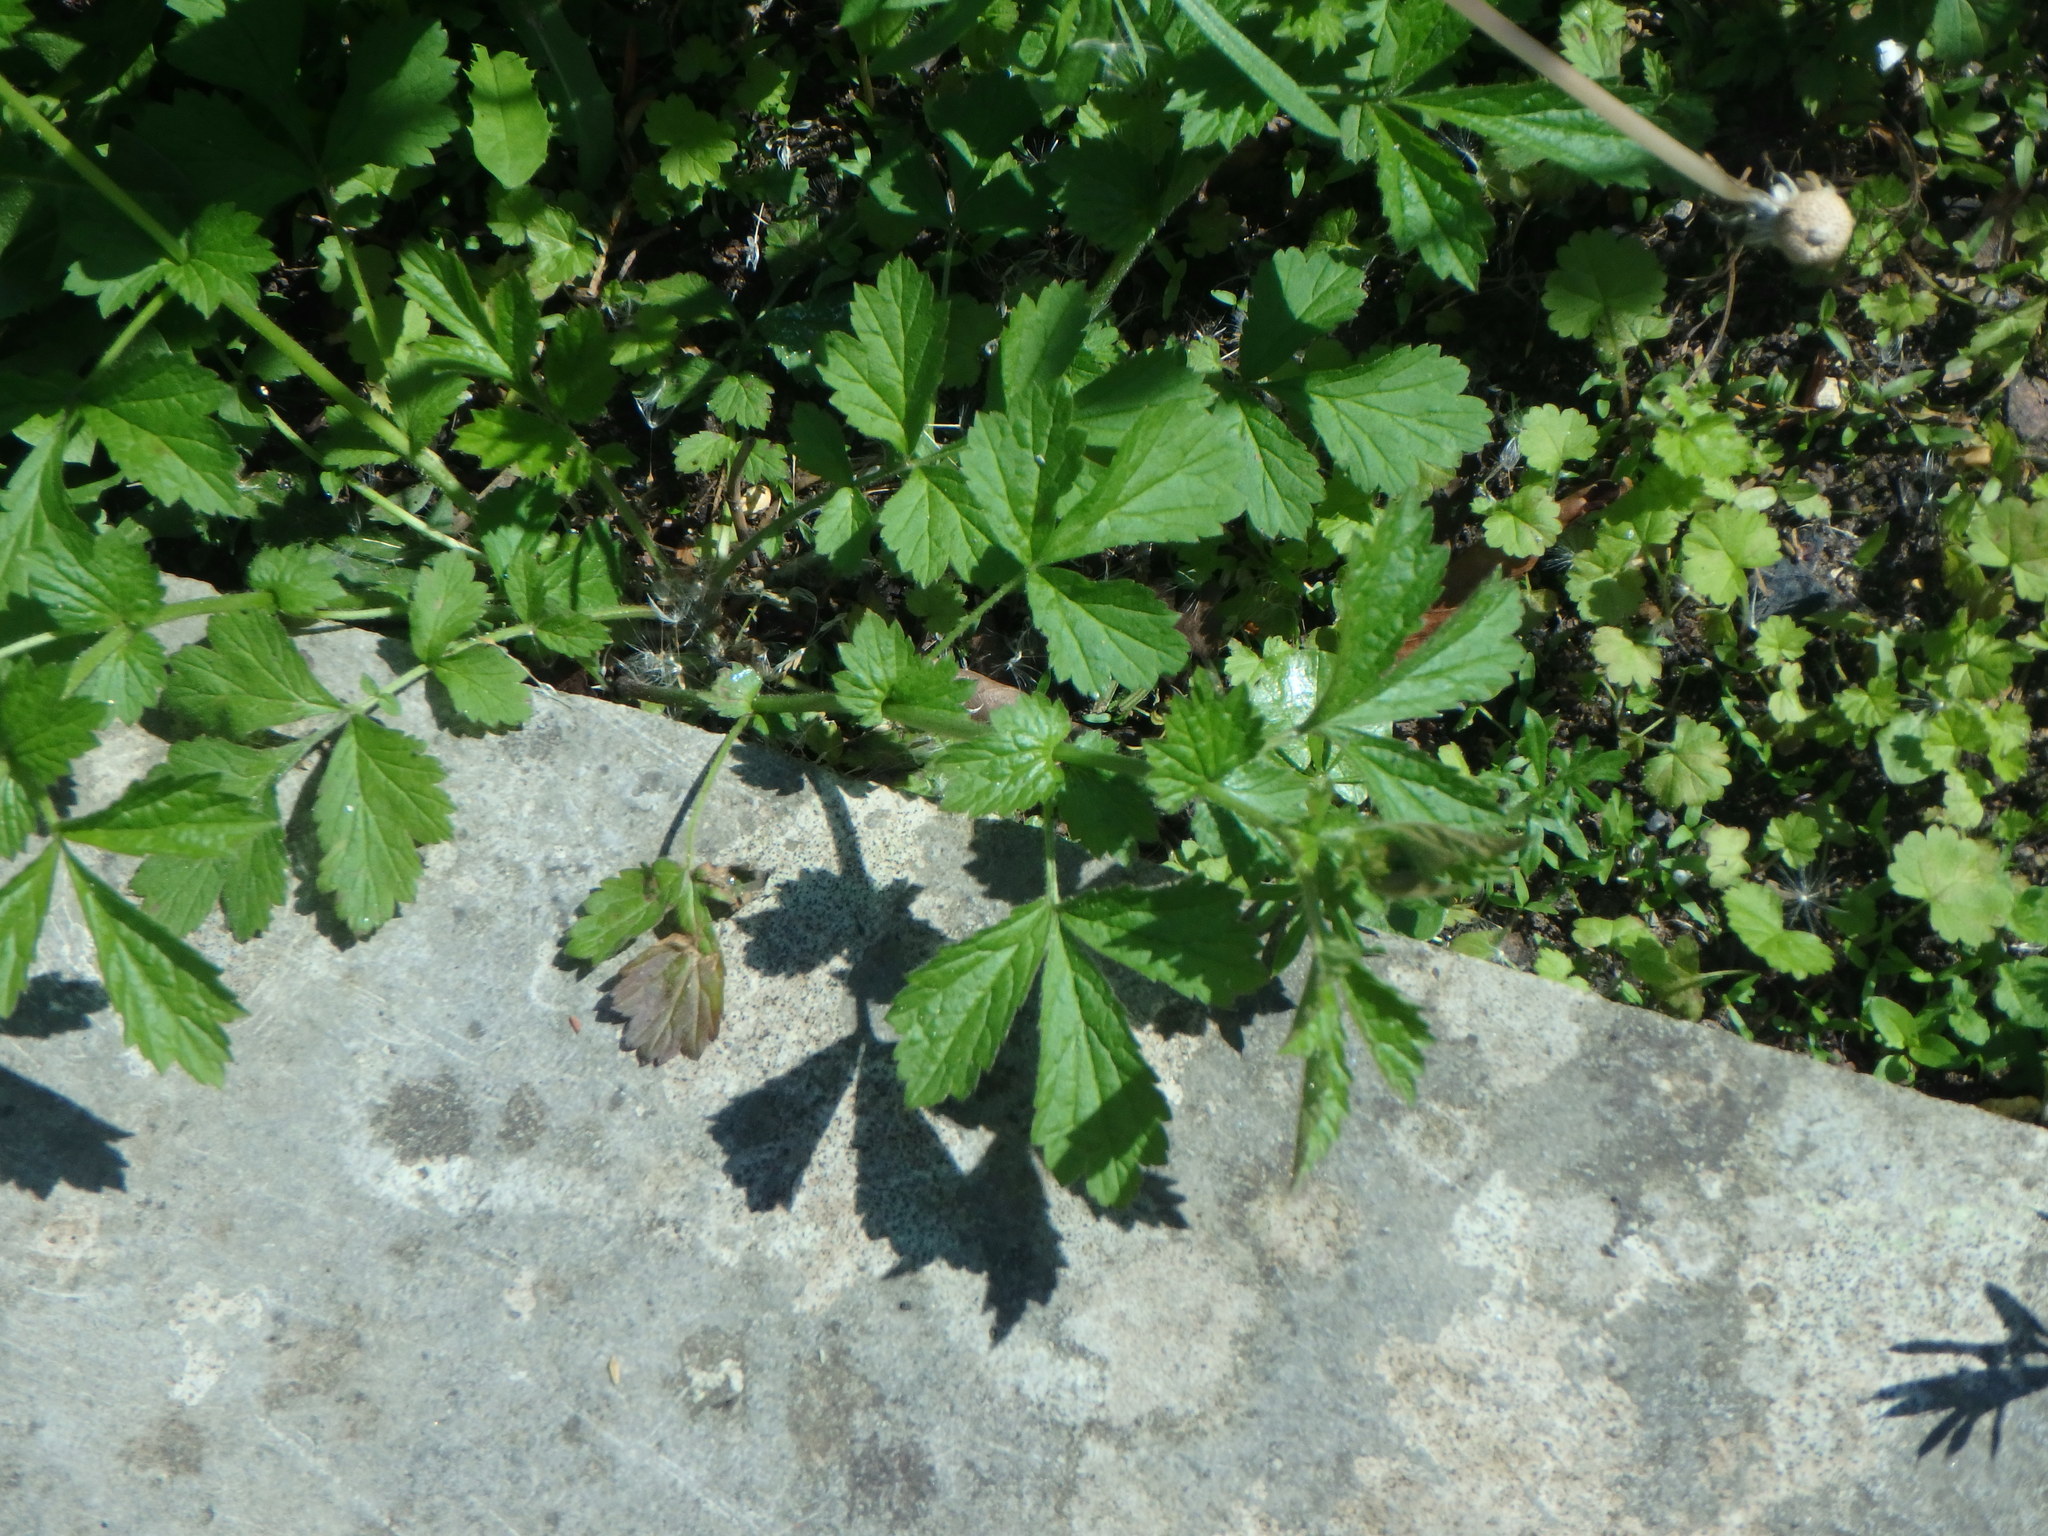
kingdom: Plantae
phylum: Tracheophyta
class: Magnoliopsida
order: Rosales
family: Rosaceae
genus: Geum
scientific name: Geum urbanum
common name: Wood avens
